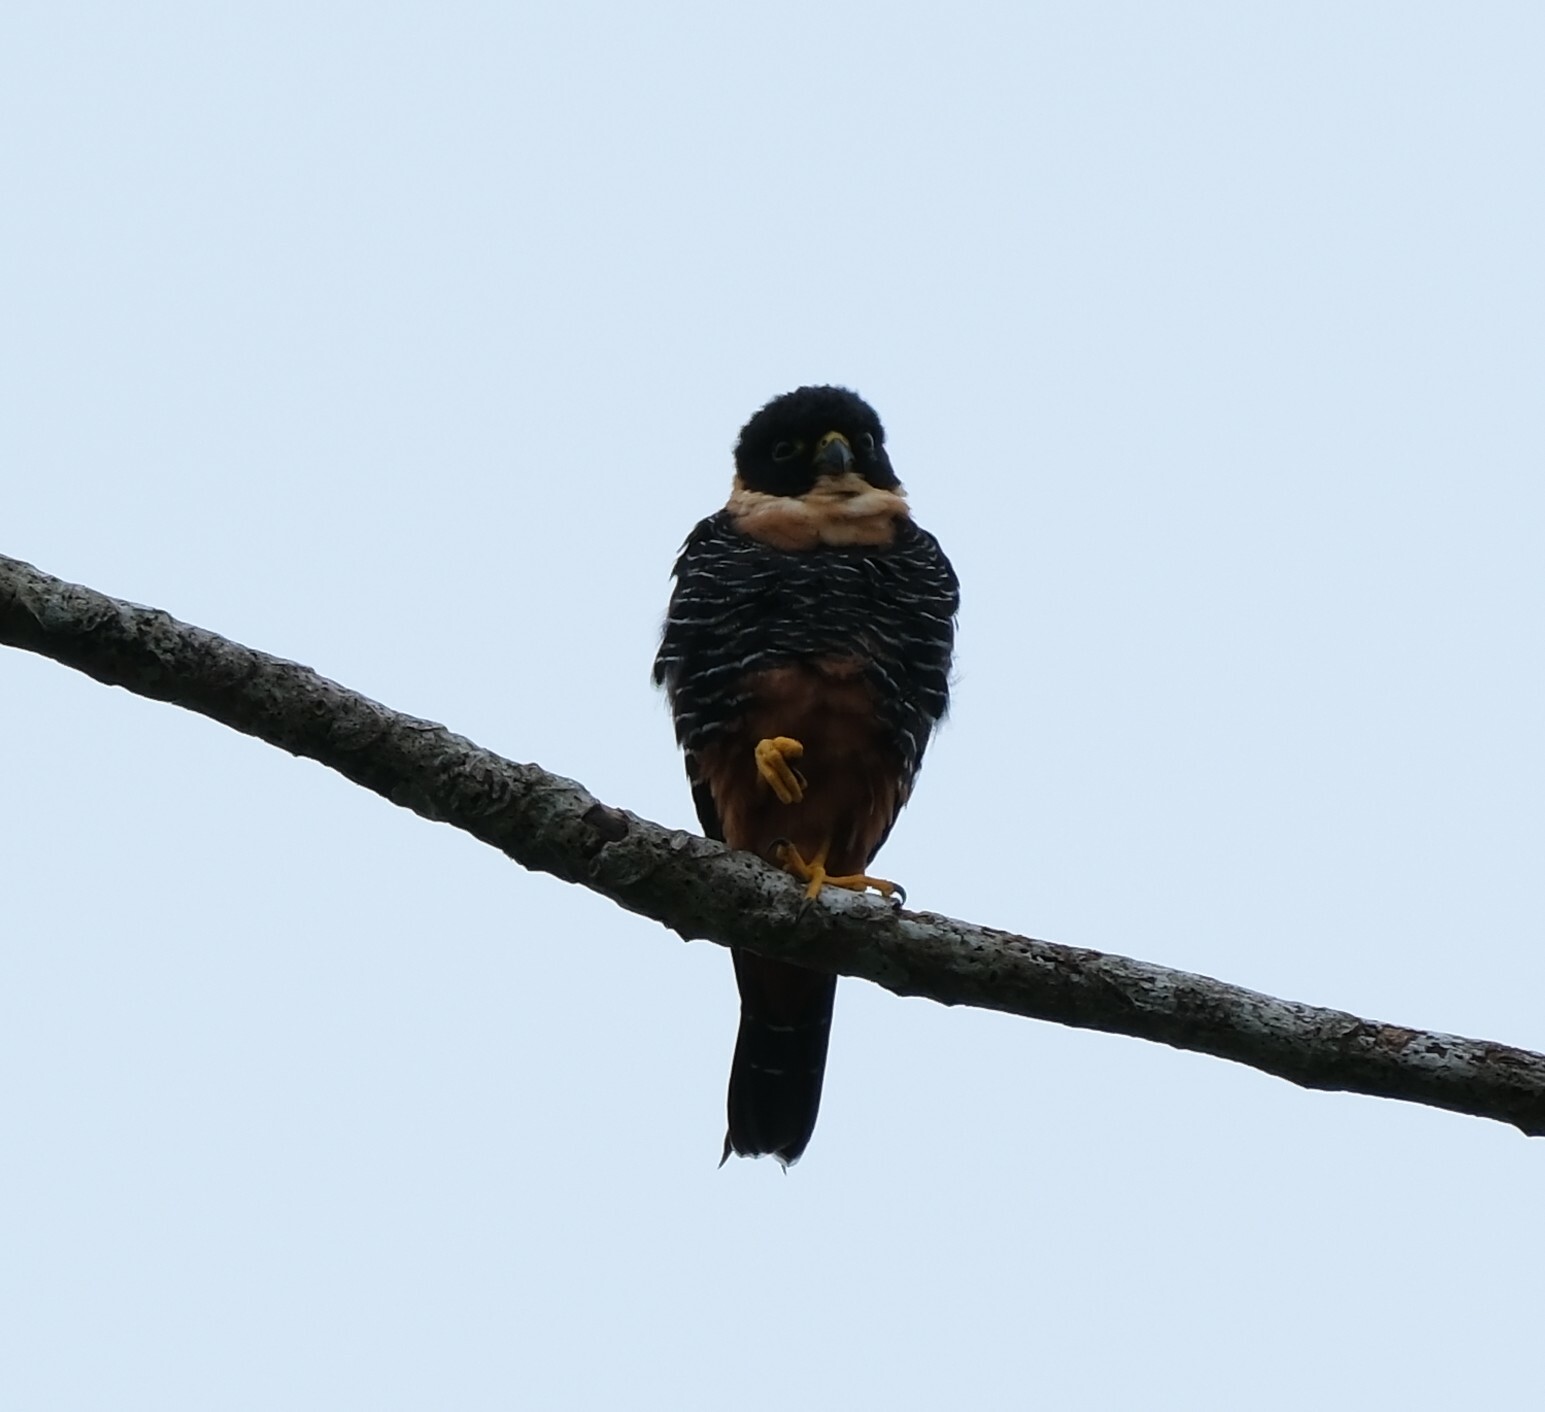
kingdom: Animalia
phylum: Chordata
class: Aves
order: Falconiformes
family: Falconidae
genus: Falco
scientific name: Falco rufigularis
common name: Bat falcon
